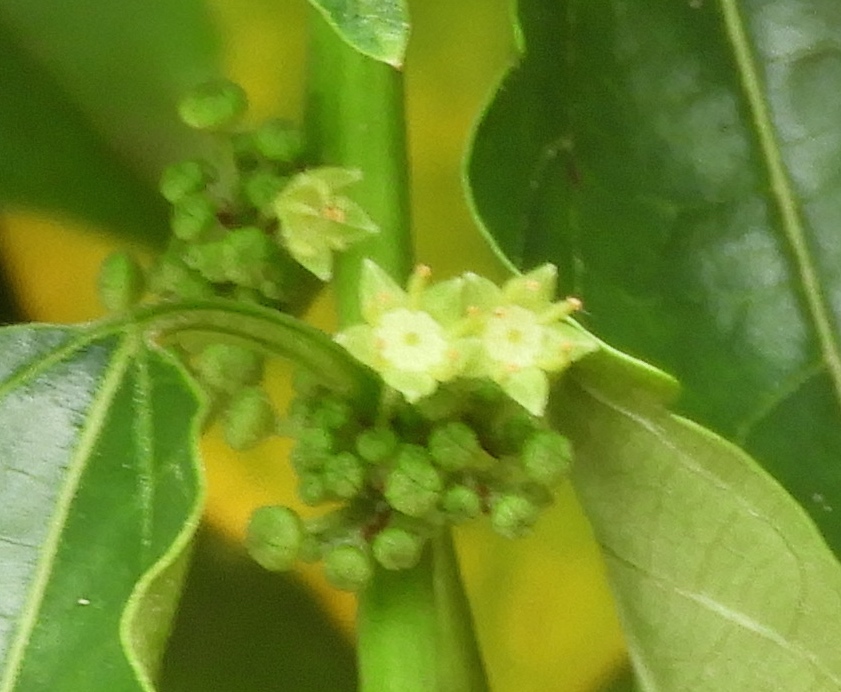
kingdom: Plantae
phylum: Tracheophyta
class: Magnoliopsida
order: Rosales
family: Rhamnaceae
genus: Colubrina
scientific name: Colubrina triflora
